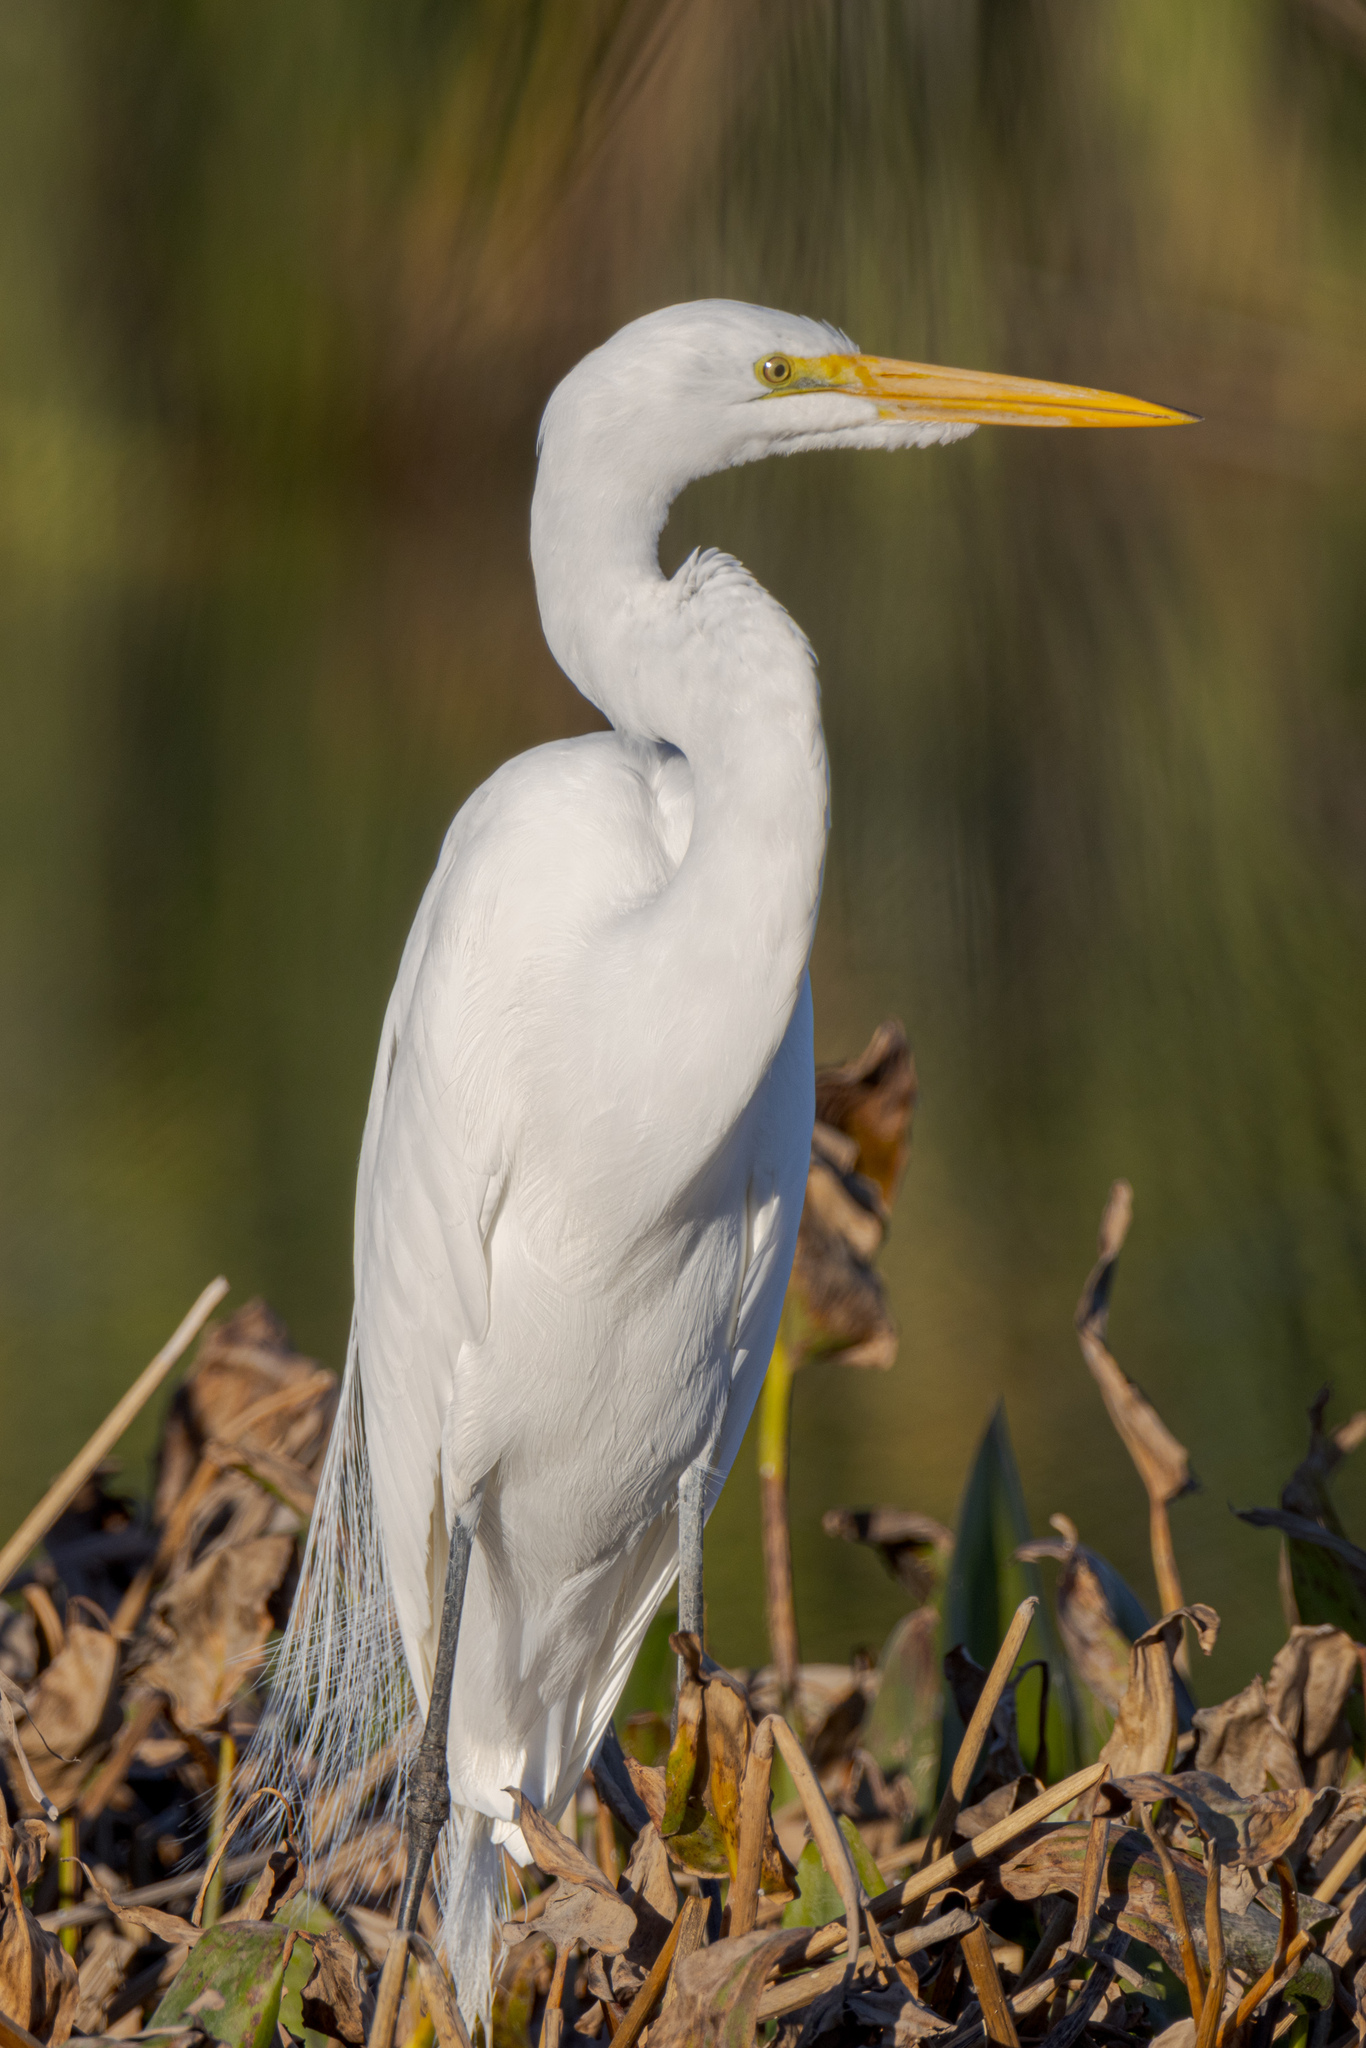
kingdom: Animalia
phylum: Chordata
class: Aves
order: Pelecaniformes
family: Ardeidae
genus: Ardea
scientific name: Ardea alba
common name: Great egret
